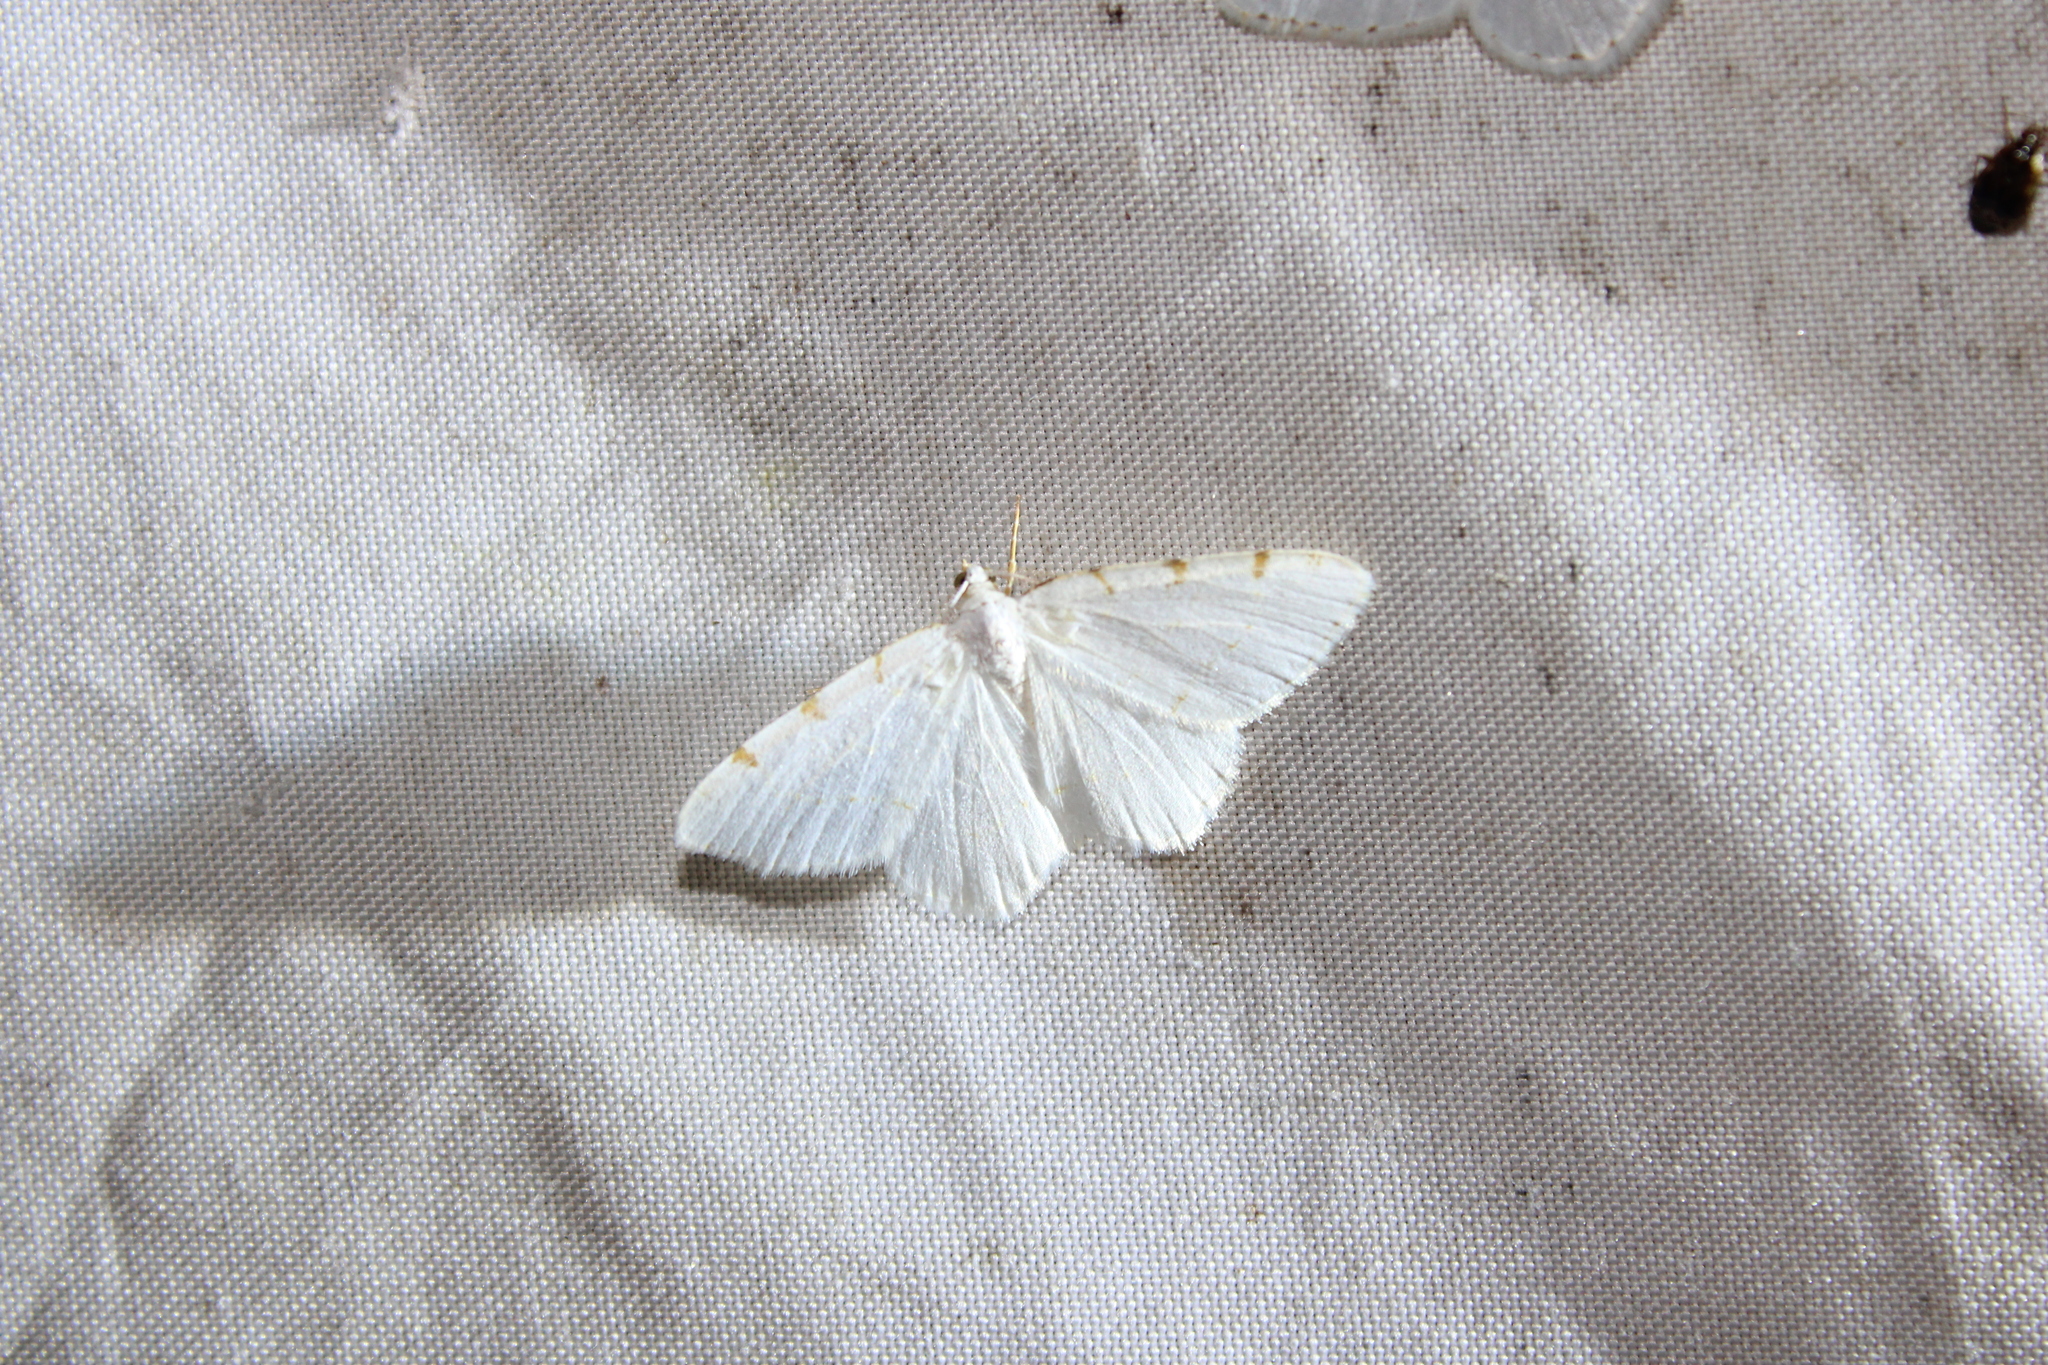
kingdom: Animalia
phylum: Arthropoda
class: Insecta
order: Lepidoptera
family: Geometridae
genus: Macaria
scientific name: Macaria pustularia
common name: Lesser maple spanworm moth
